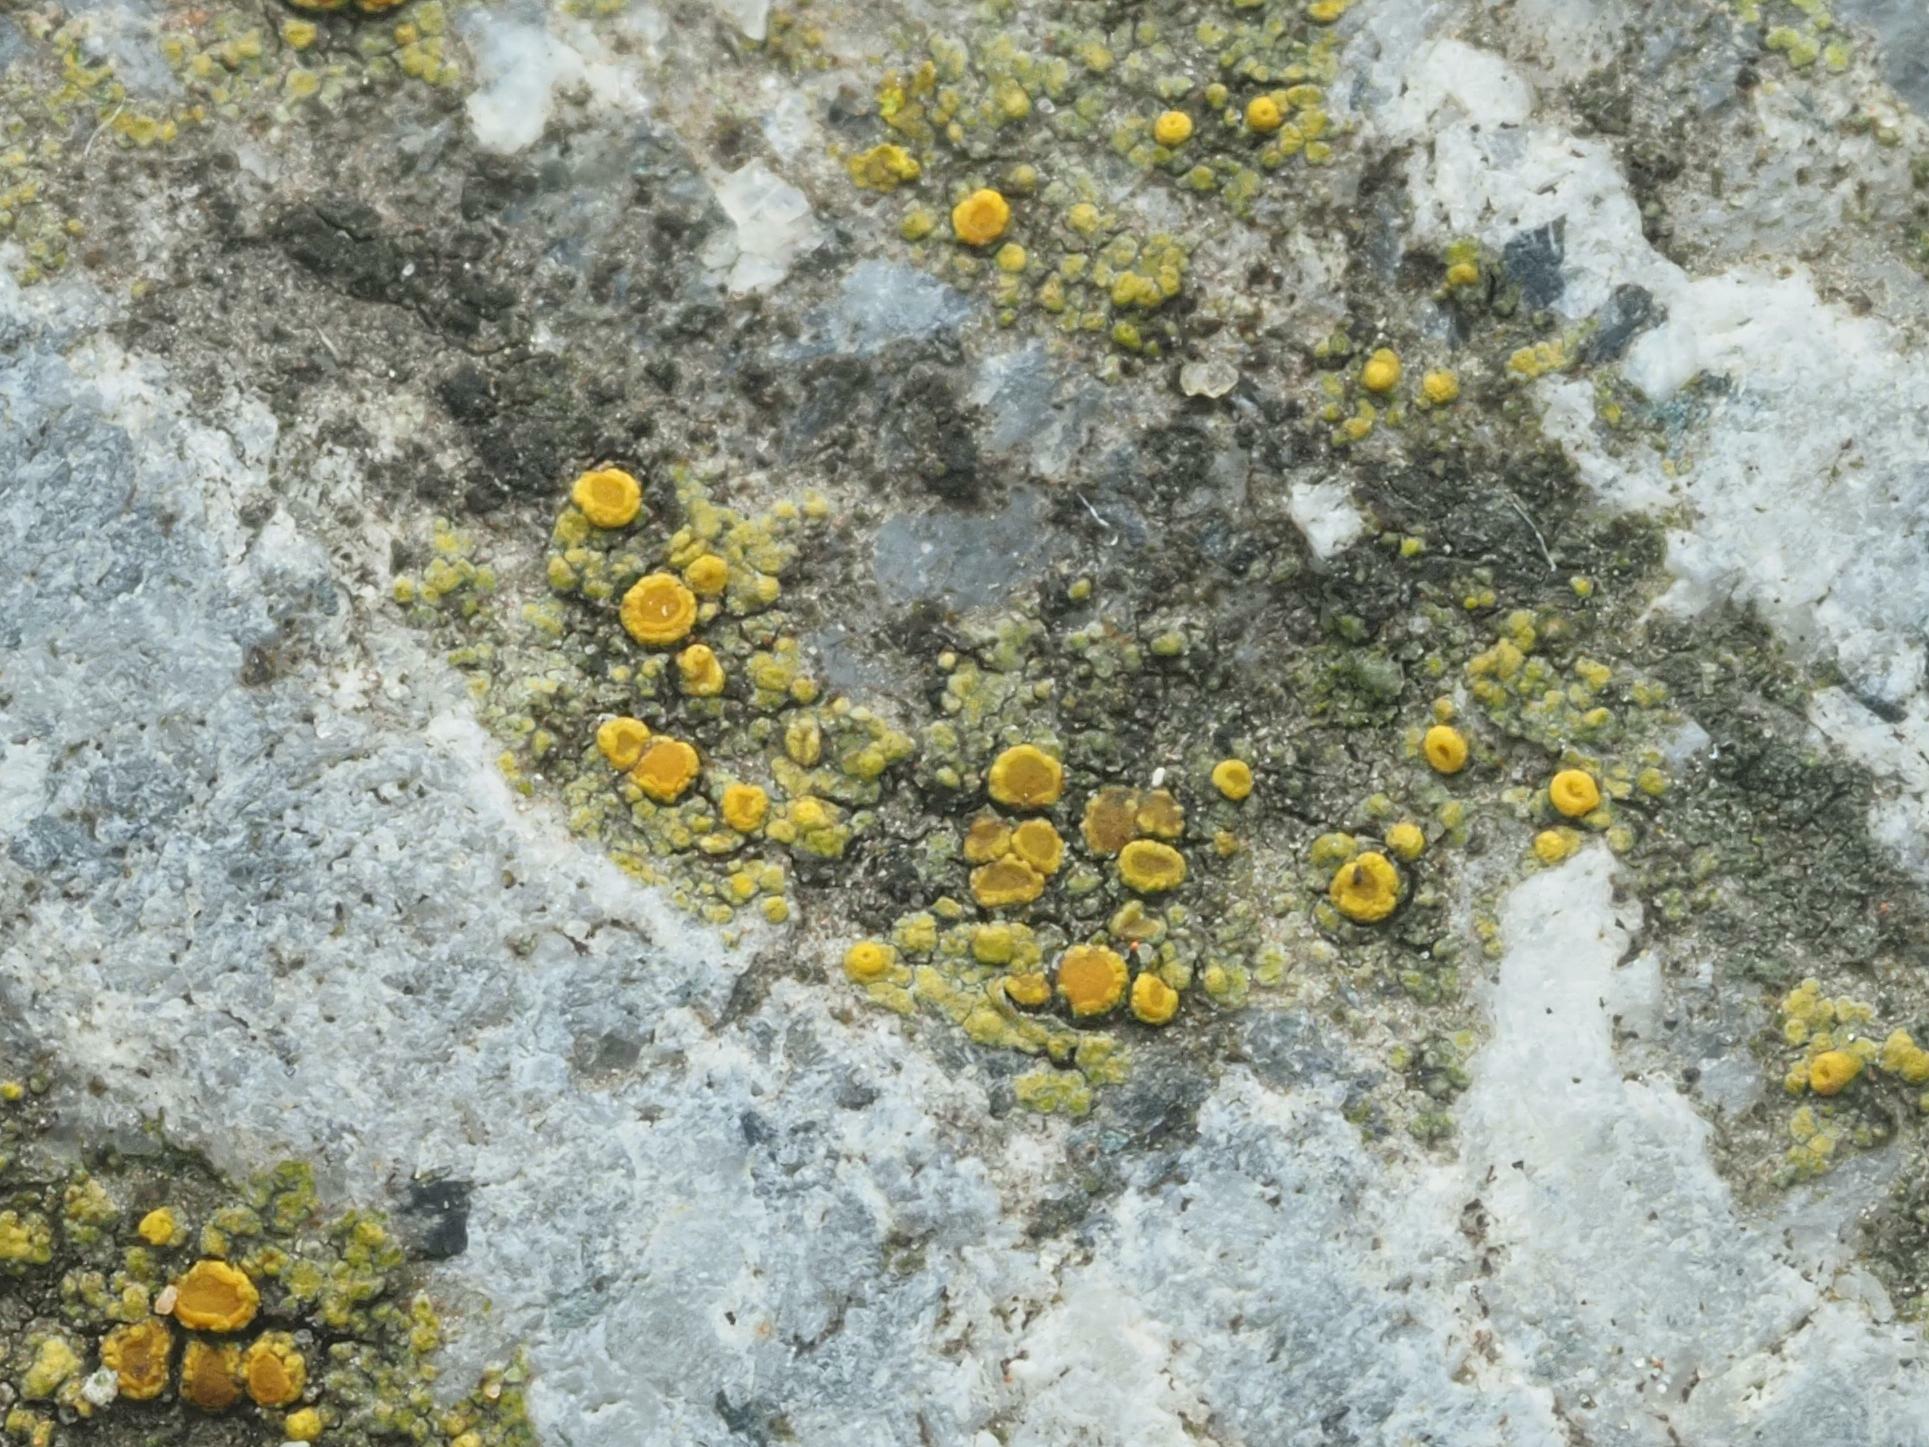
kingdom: Fungi
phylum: Ascomycota
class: Candelariomycetes
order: Candelariales
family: Candelariaceae
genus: Candelariella
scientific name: Candelariella vitellina
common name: Common goldspeck
